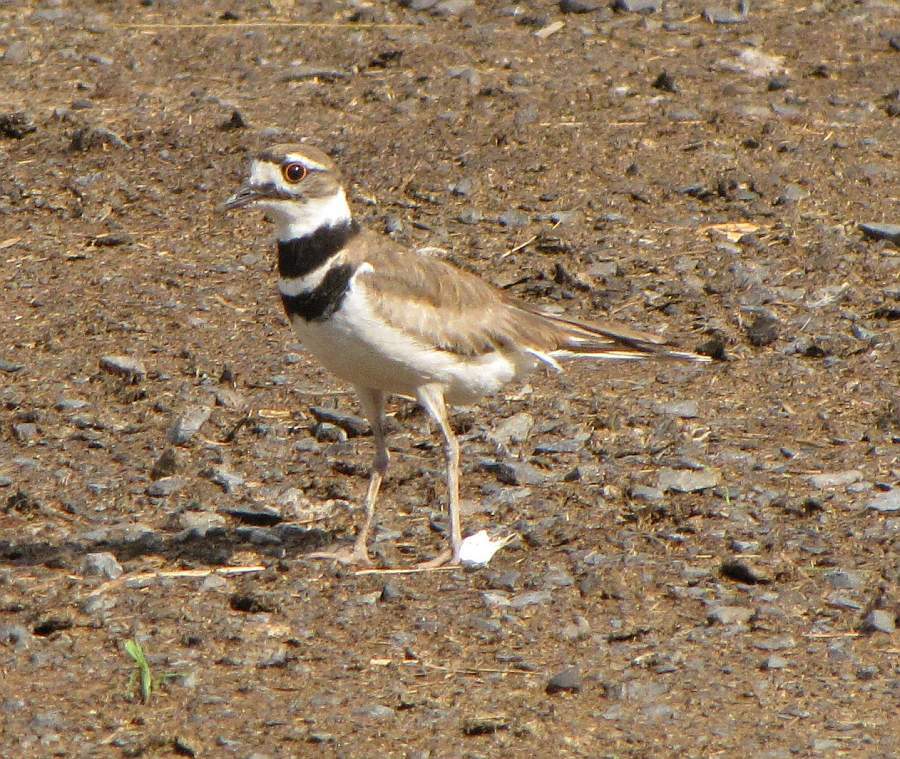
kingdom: Animalia
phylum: Chordata
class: Aves
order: Charadriiformes
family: Charadriidae
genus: Charadrius
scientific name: Charadrius vociferus
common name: Killdeer
